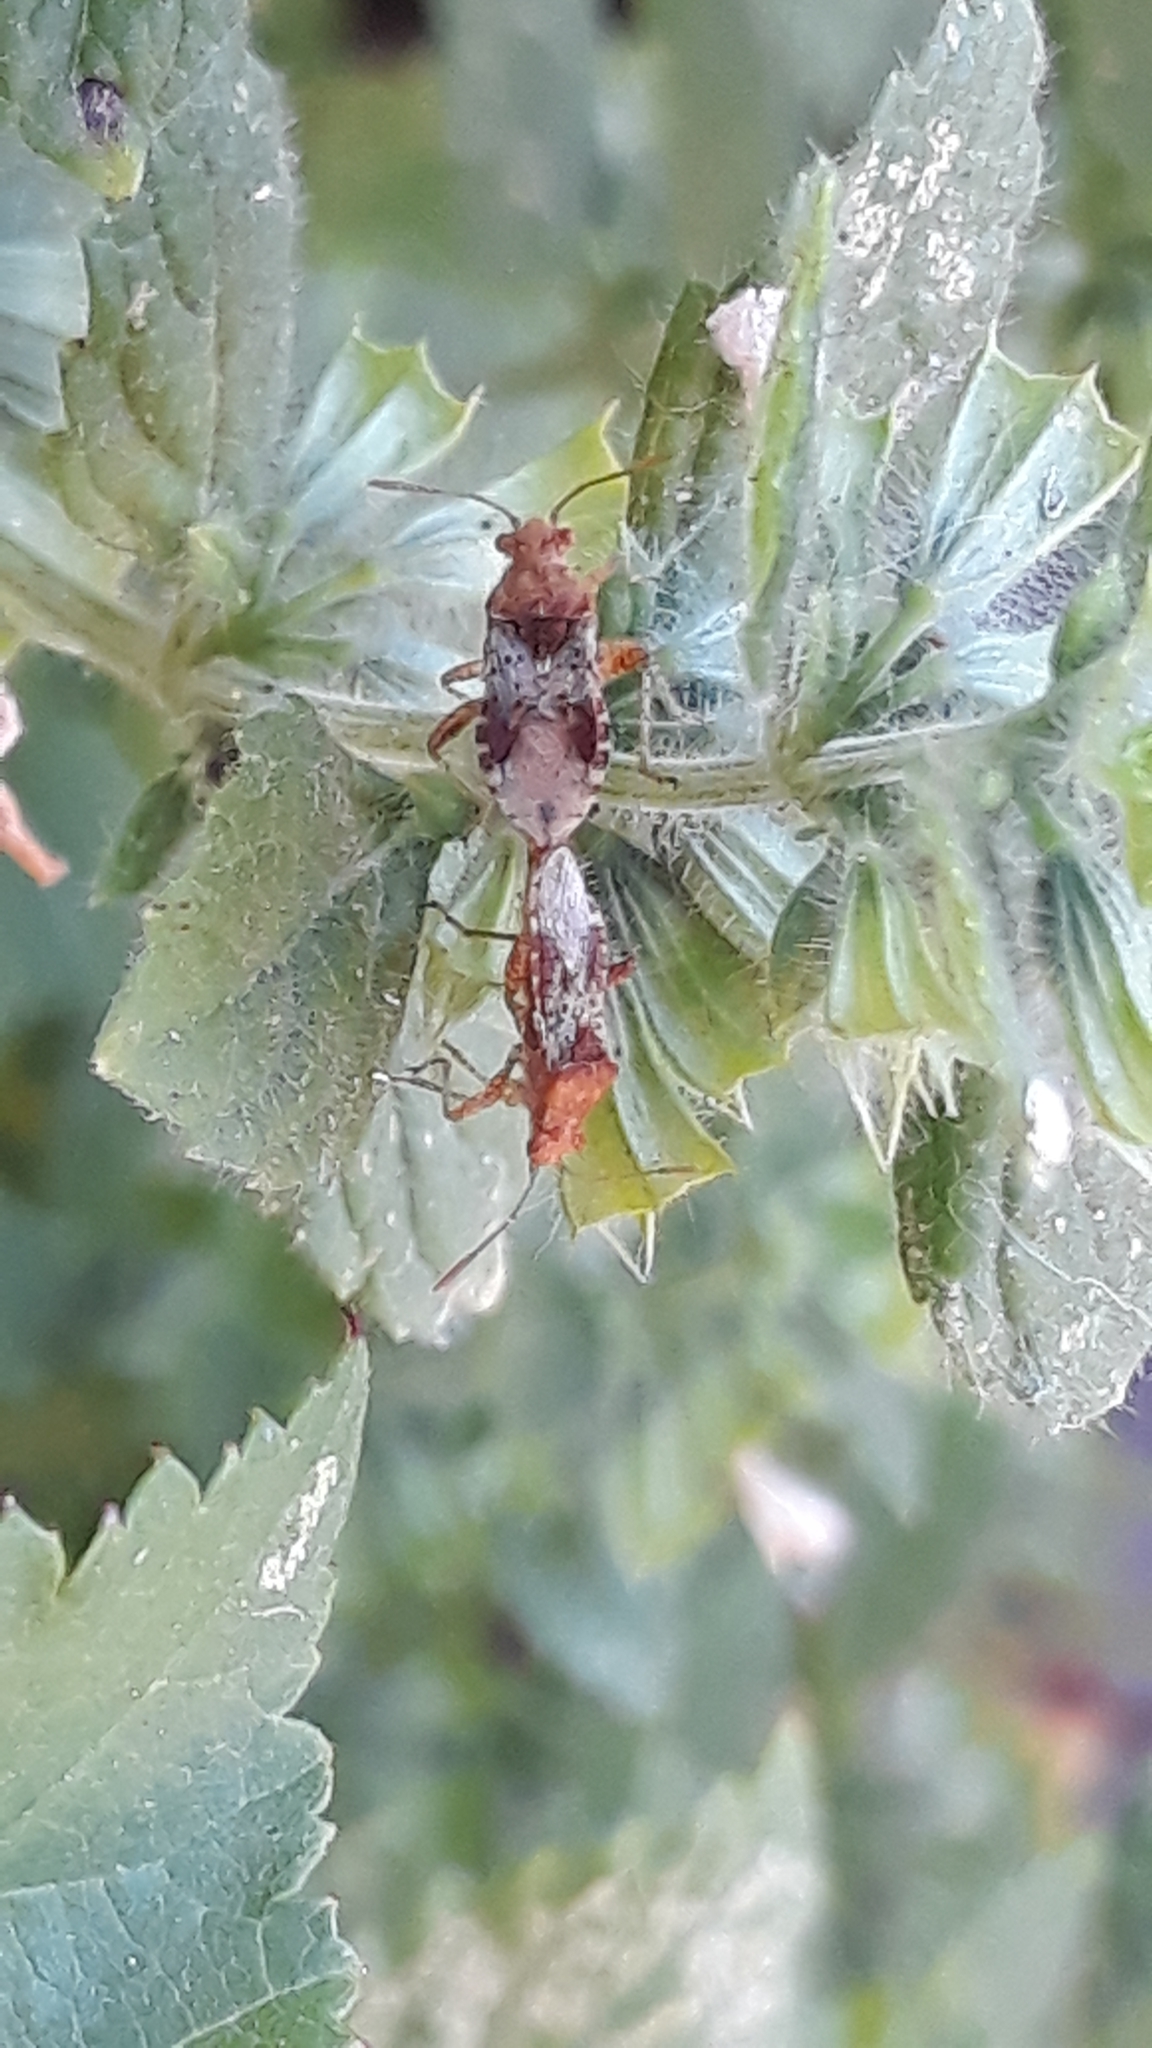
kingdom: Animalia
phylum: Arthropoda
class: Insecta
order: Hemiptera
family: Rhopalidae
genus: Rhopalus
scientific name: Rhopalus subrufus
